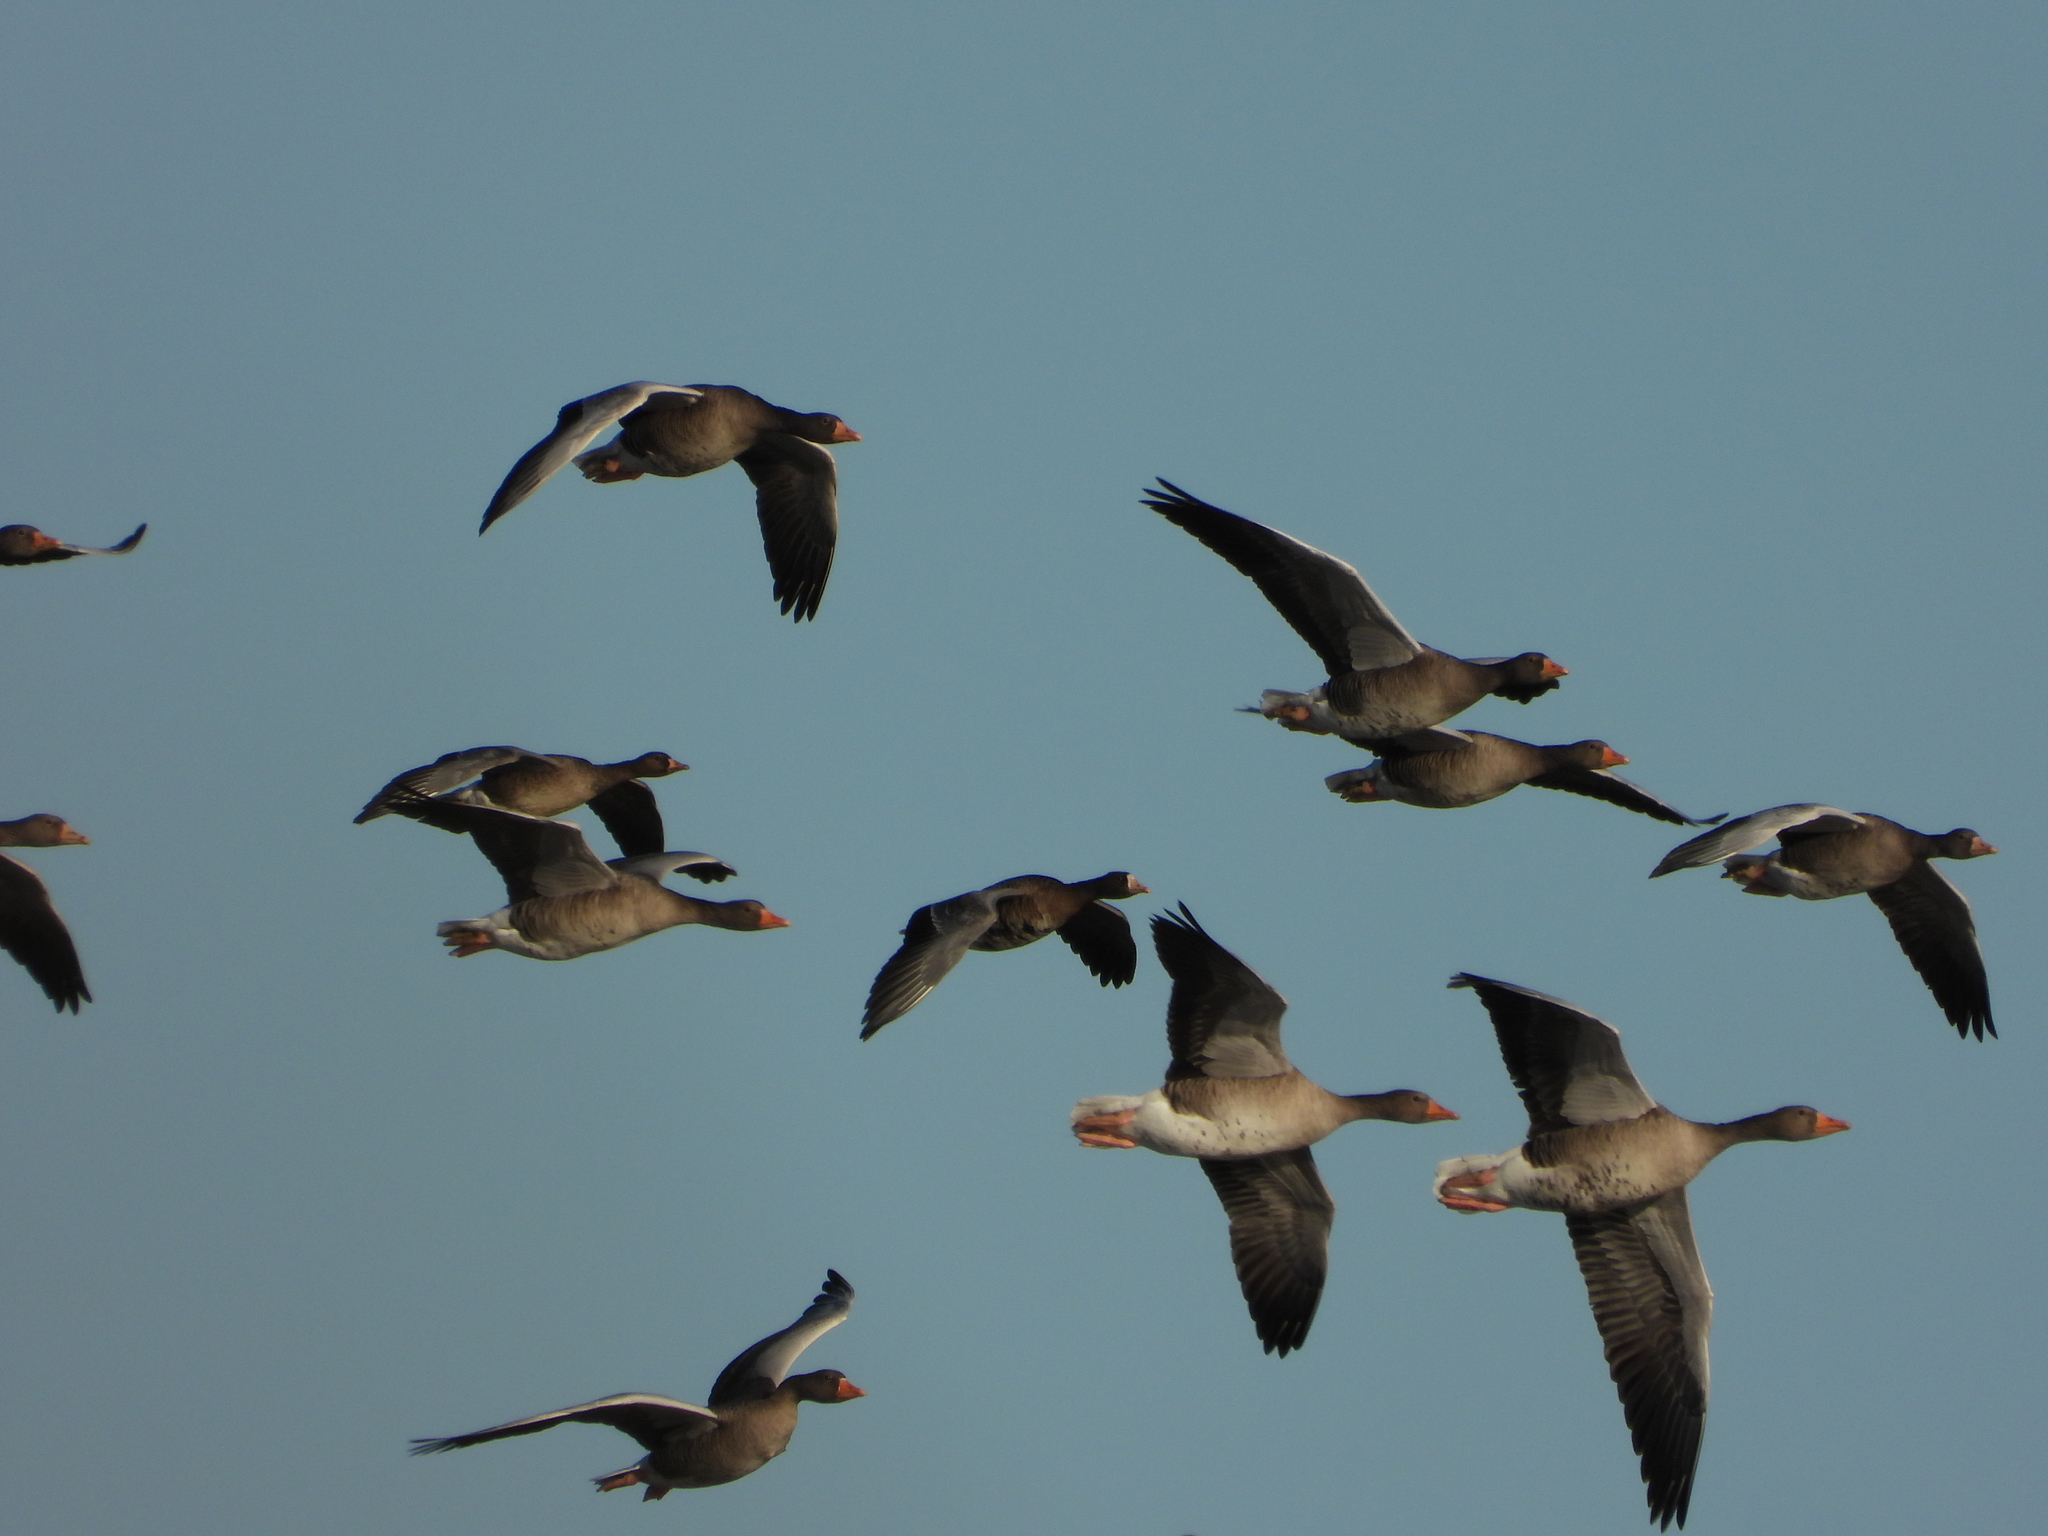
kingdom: Animalia
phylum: Chordata
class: Aves
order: Anseriformes
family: Anatidae
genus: Anser
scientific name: Anser anser
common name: Greylag goose
